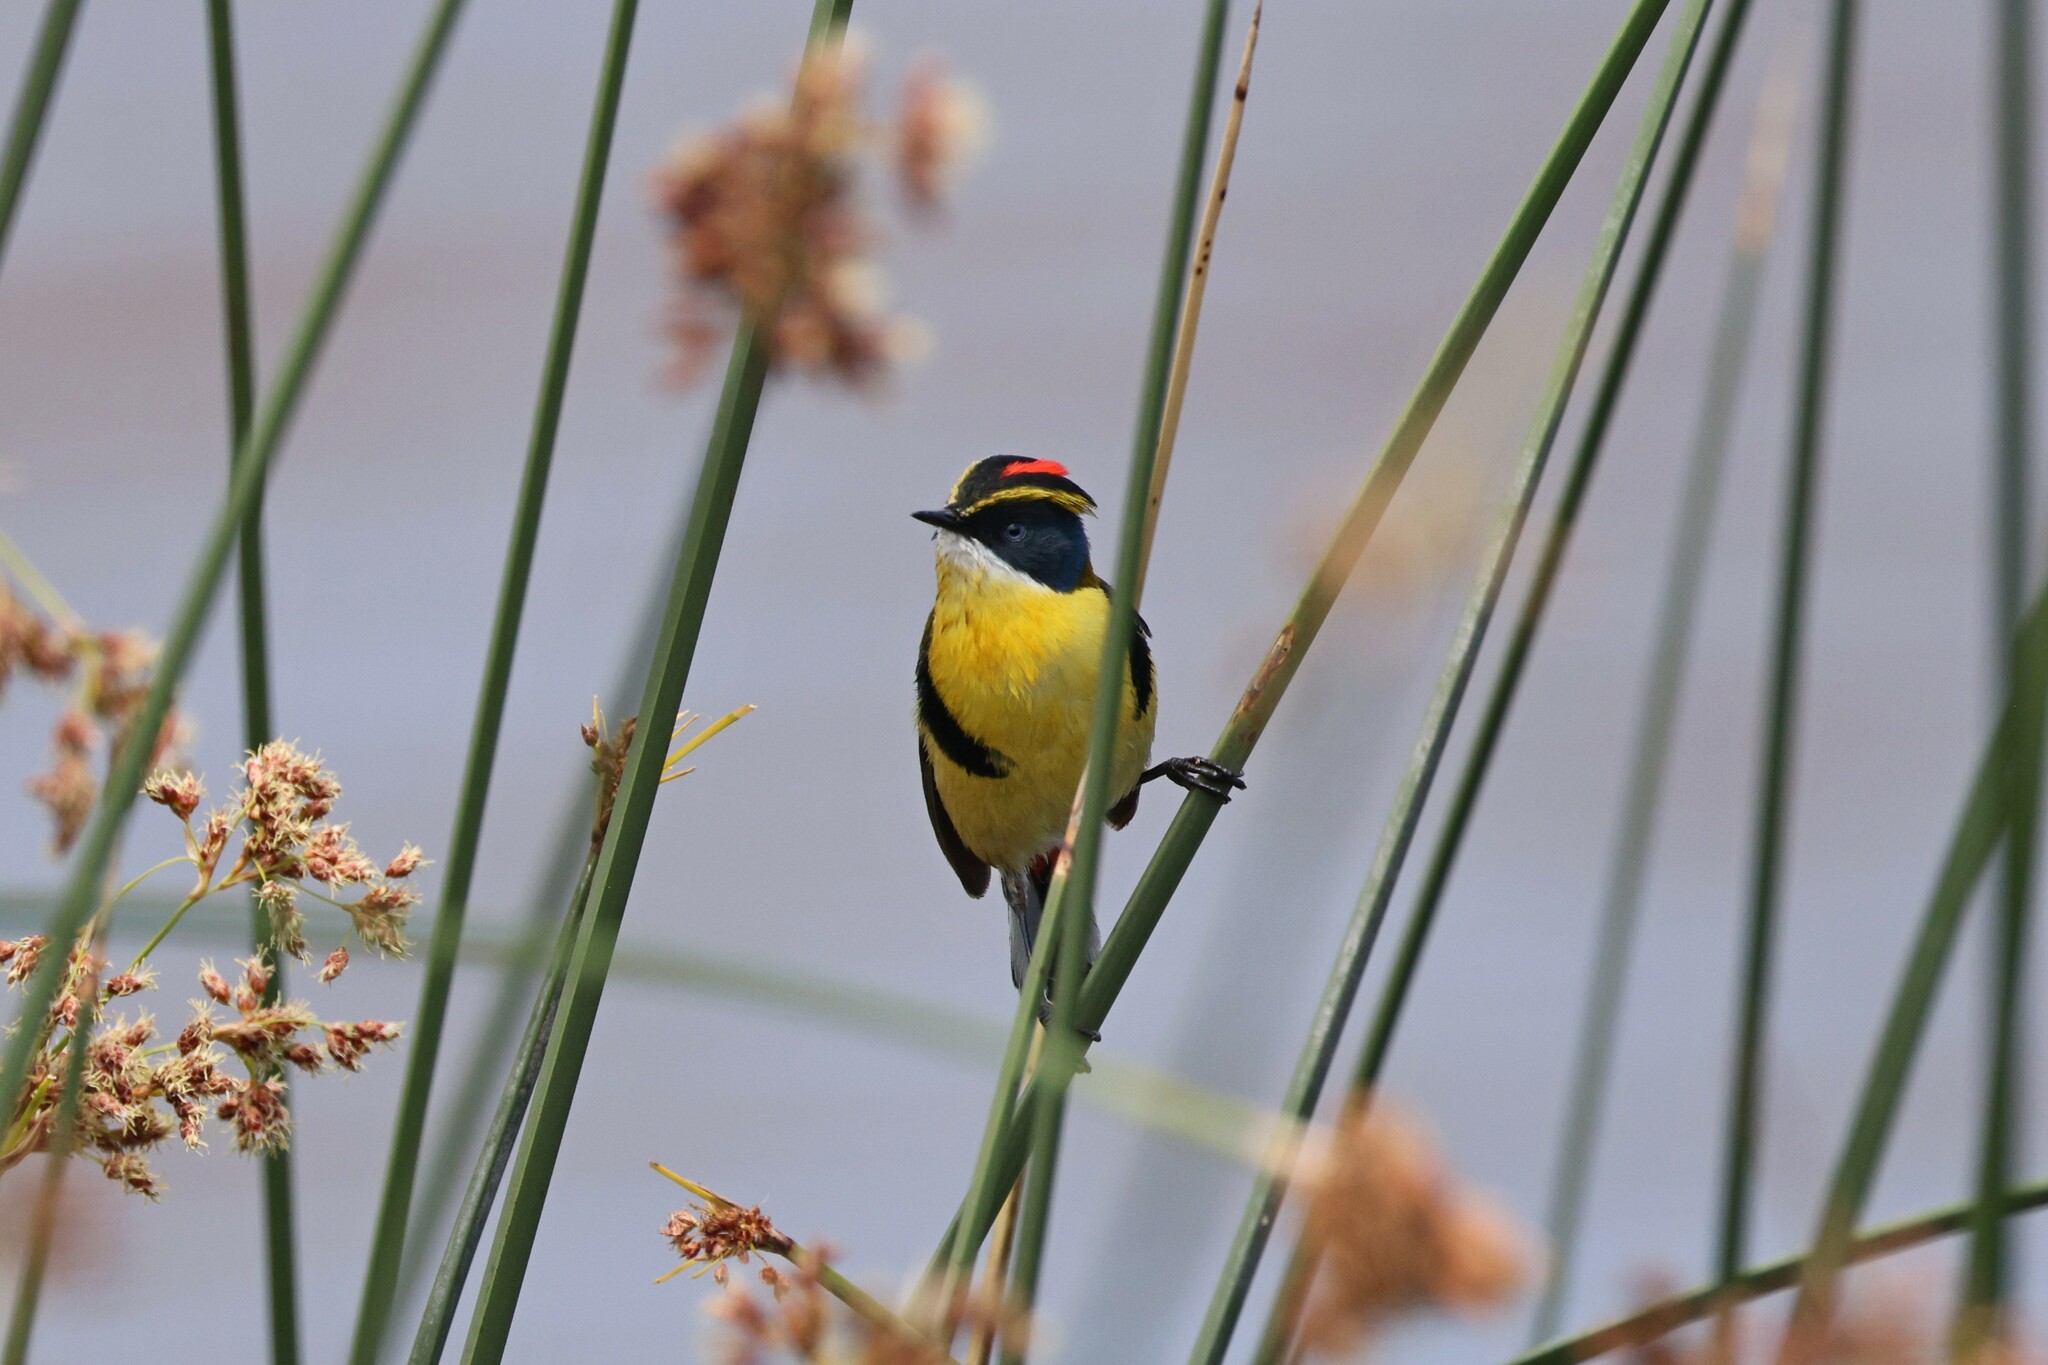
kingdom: Animalia
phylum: Chordata
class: Aves
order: Passeriformes
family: Tyrannidae
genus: Tachuris
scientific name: Tachuris rubrigastra
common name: Many-colored rush tyrant
